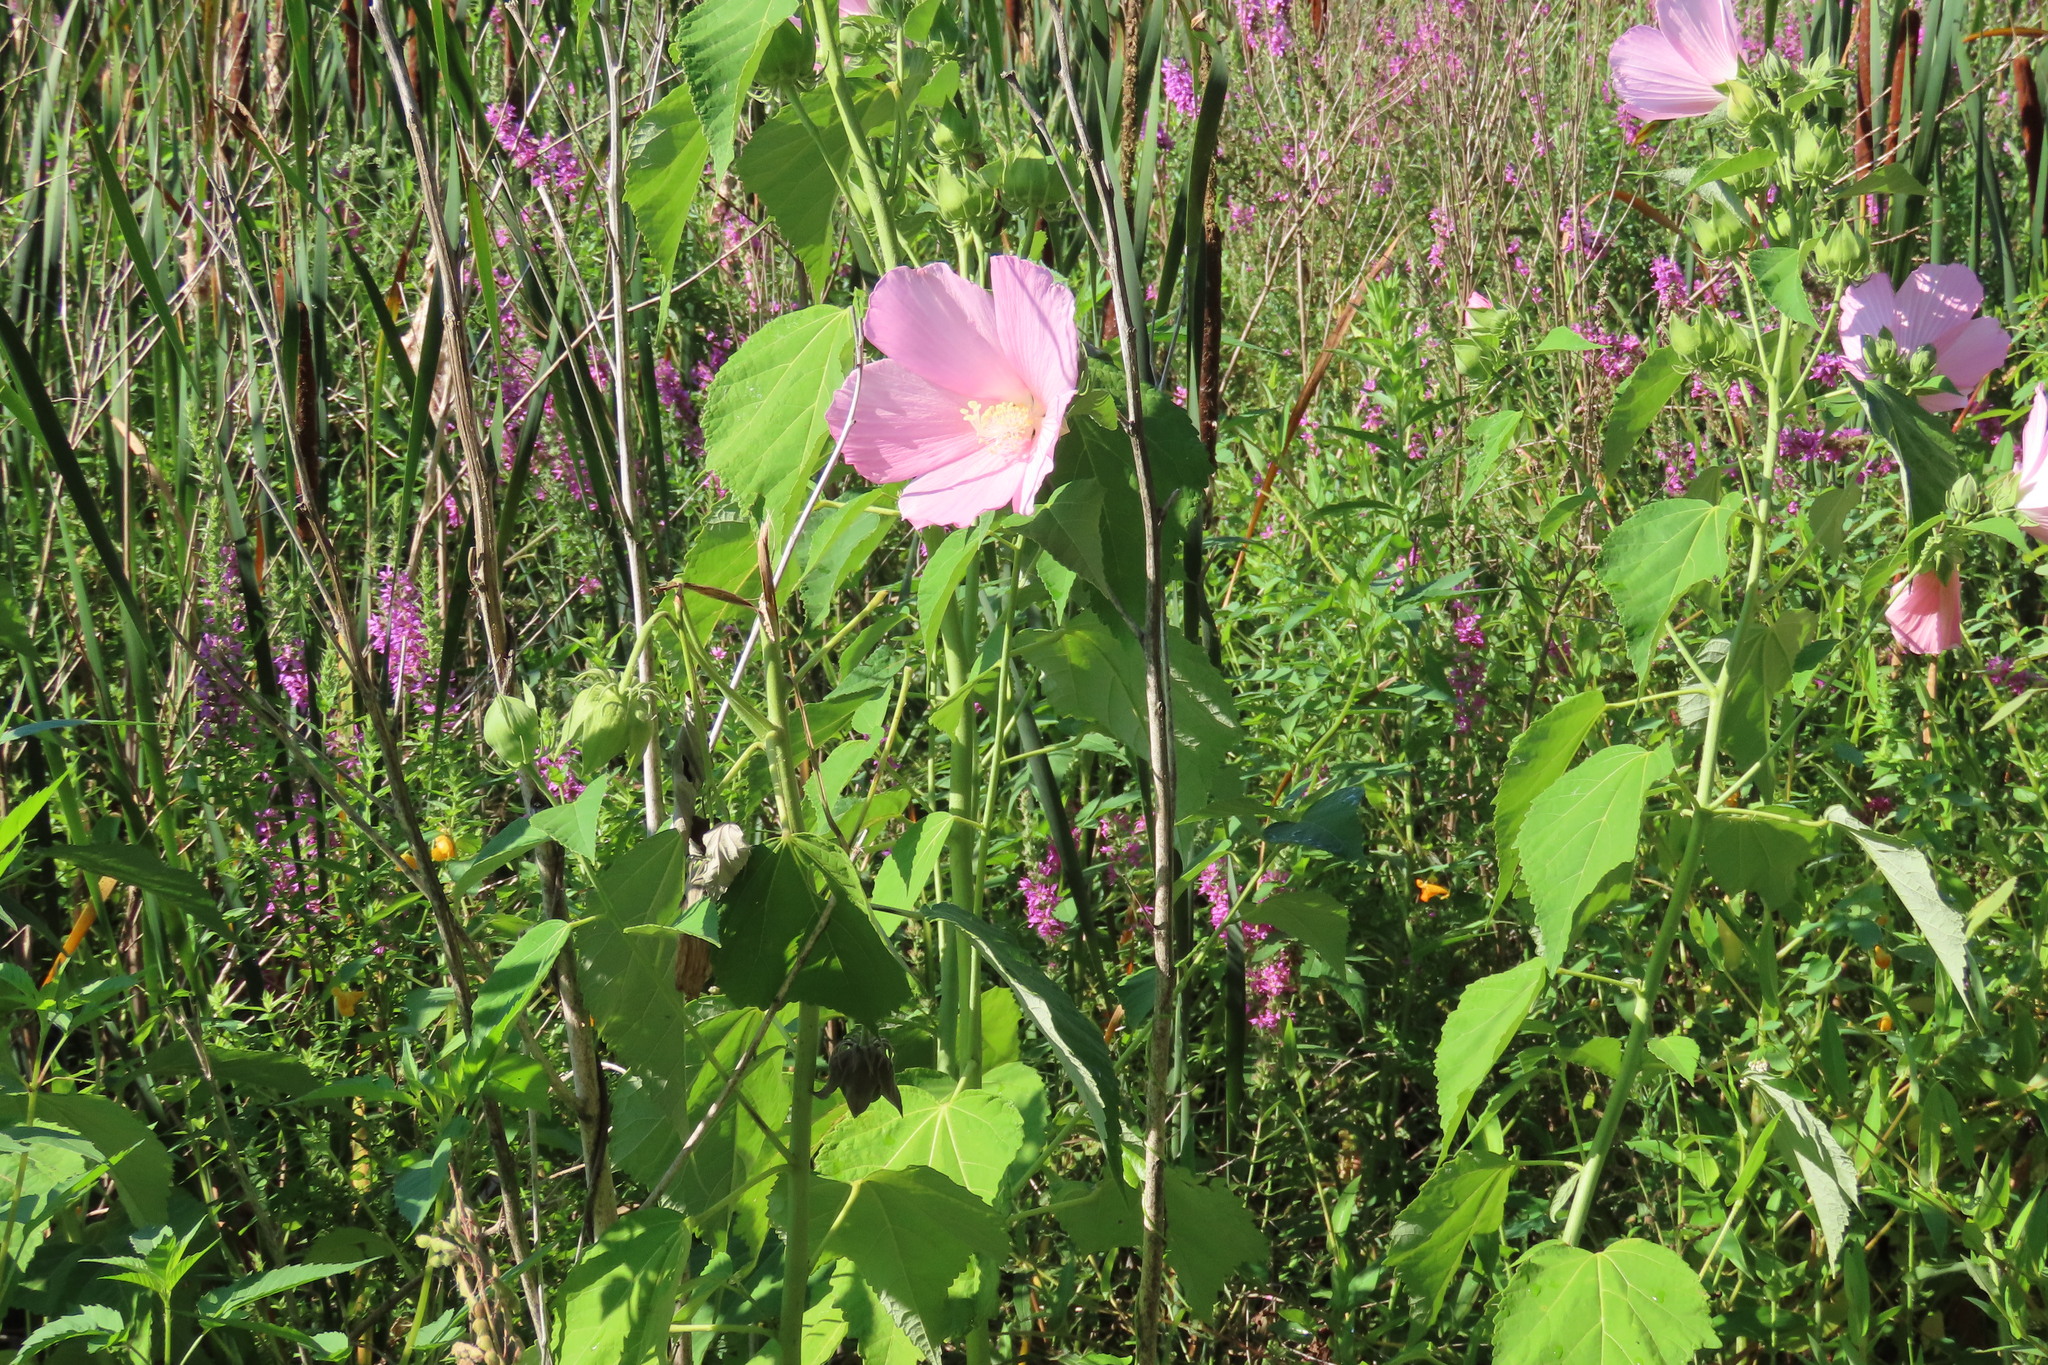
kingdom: Plantae
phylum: Tracheophyta
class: Magnoliopsida
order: Malvales
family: Malvaceae
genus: Hibiscus
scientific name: Hibiscus moscheutos
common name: Common rose-mallow
